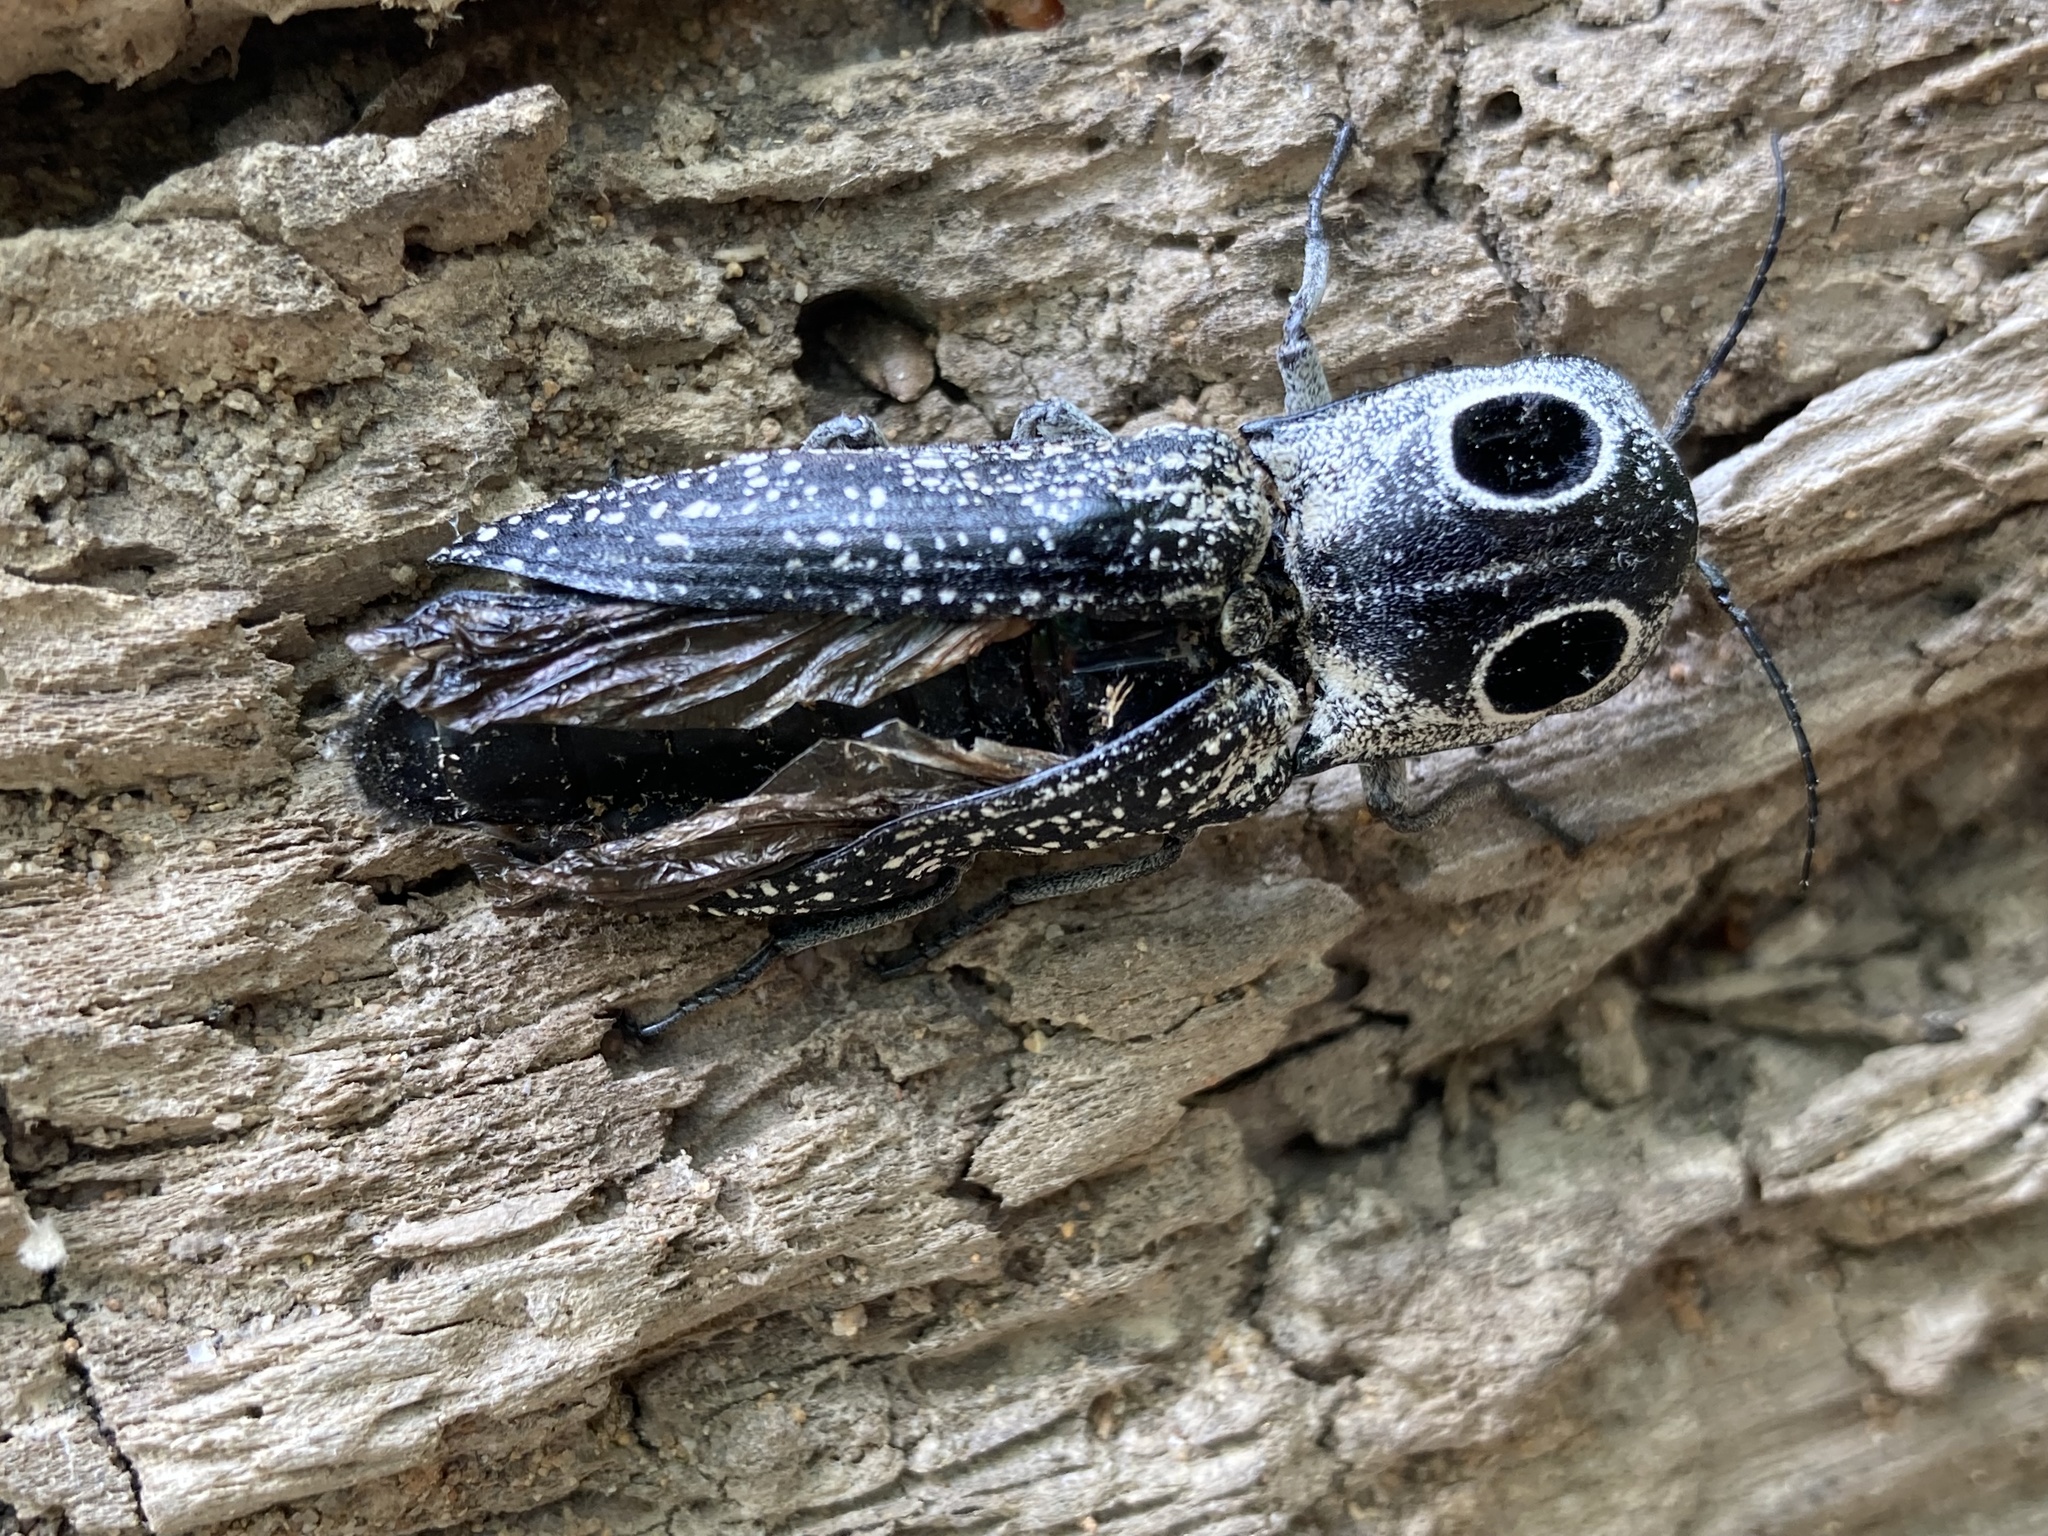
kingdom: Animalia
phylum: Arthropoda
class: Insecta
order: Coleoptera
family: Elateridae
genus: Alaus
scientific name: Alaus oculatus
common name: Eastern eyed click beetle
